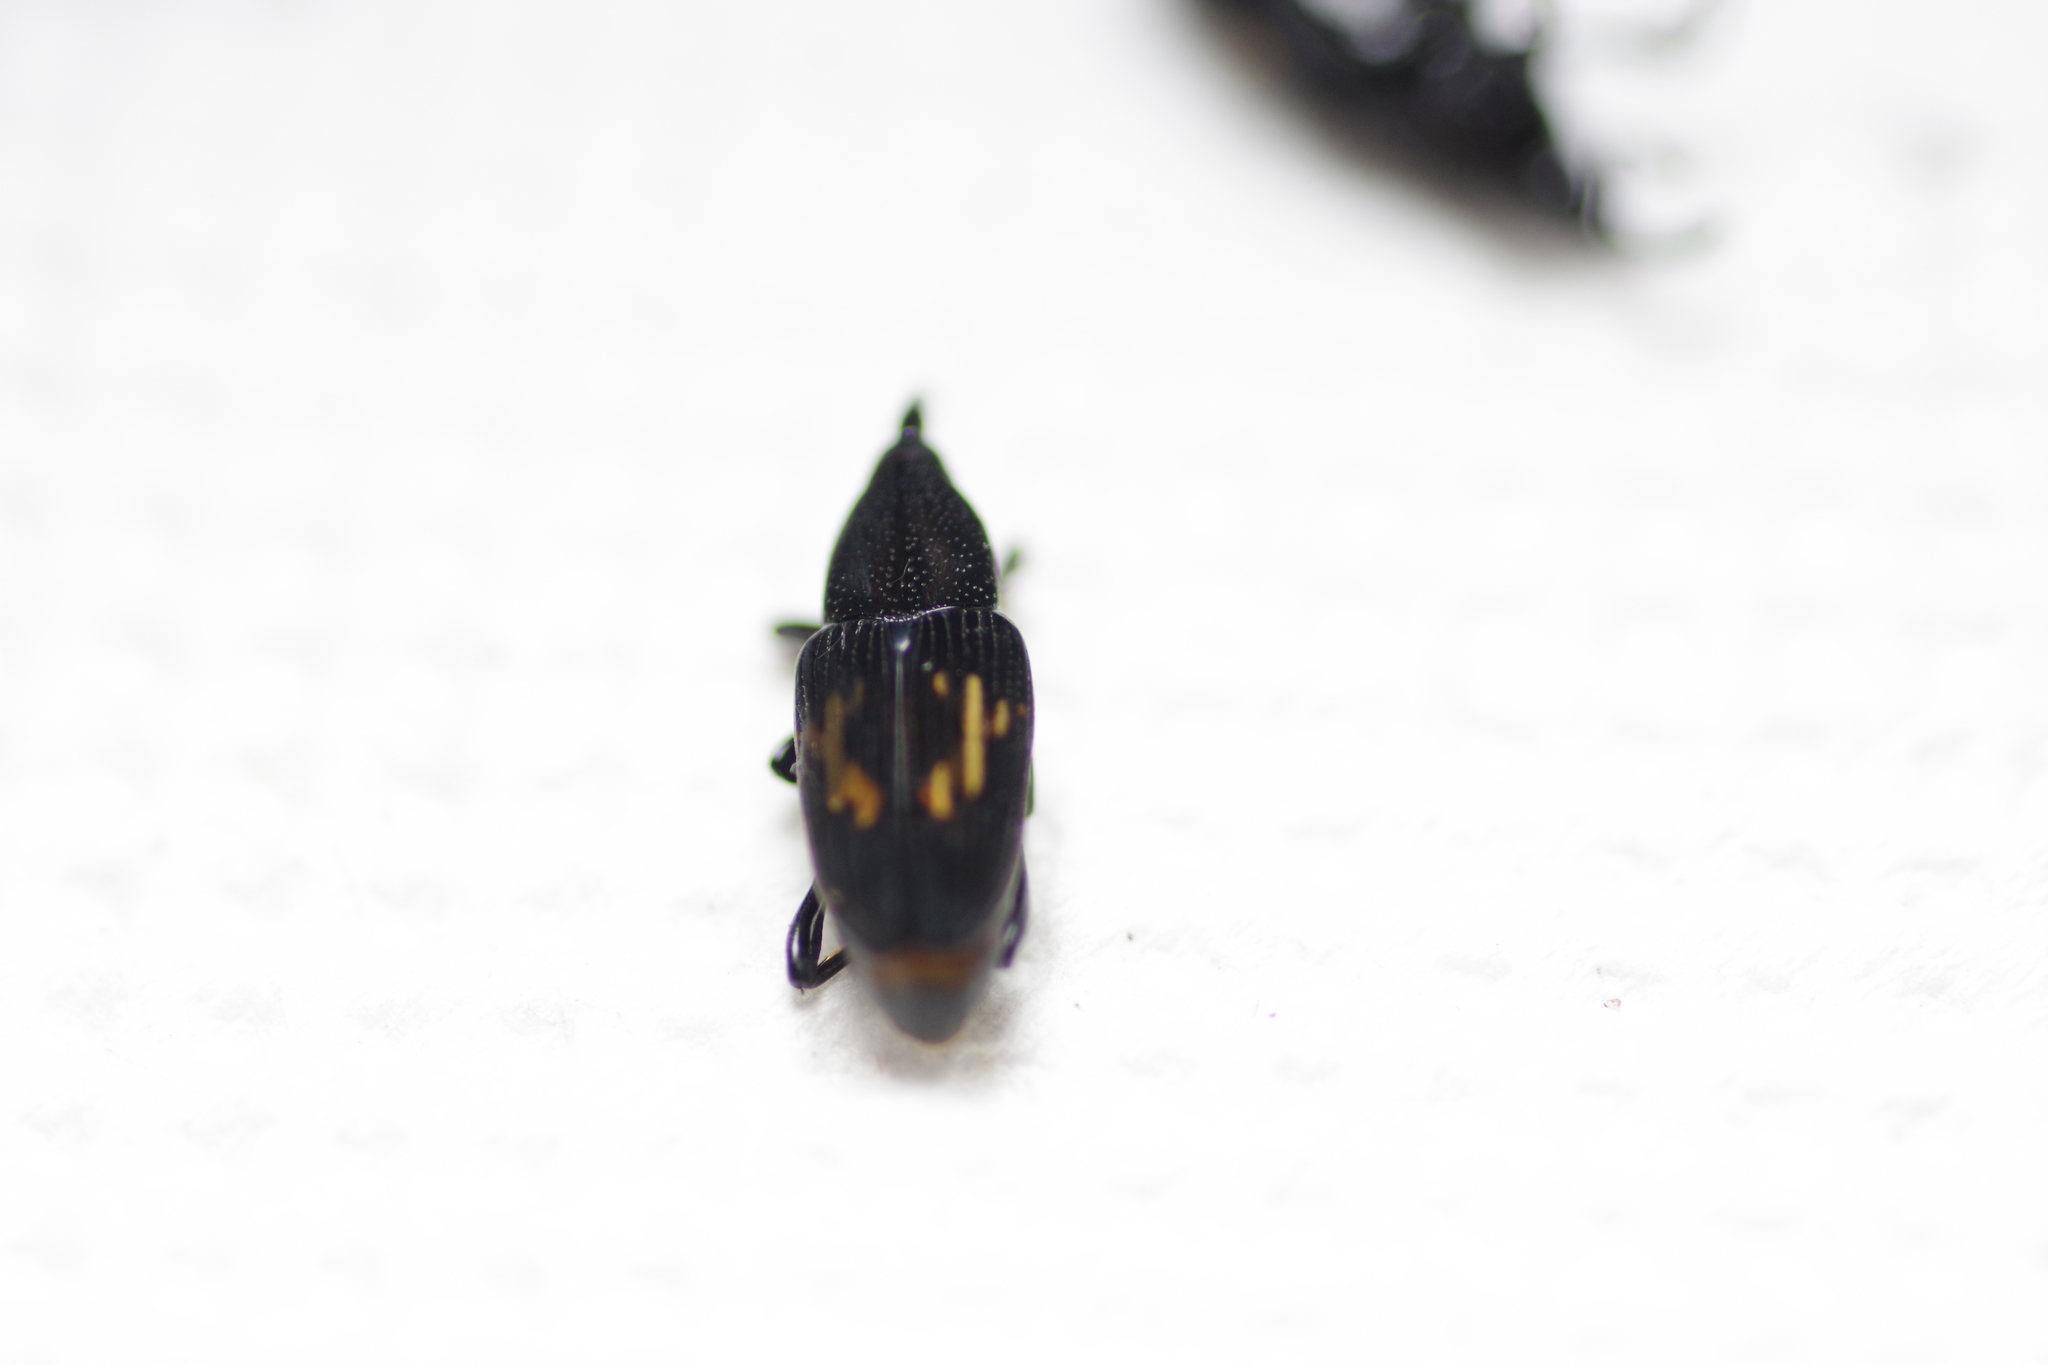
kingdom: Animalia
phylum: Arthropoda
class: Insecta
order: Coleoptera
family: Dryophthoridae
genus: Metamasius
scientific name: Metamasius nudiventris
